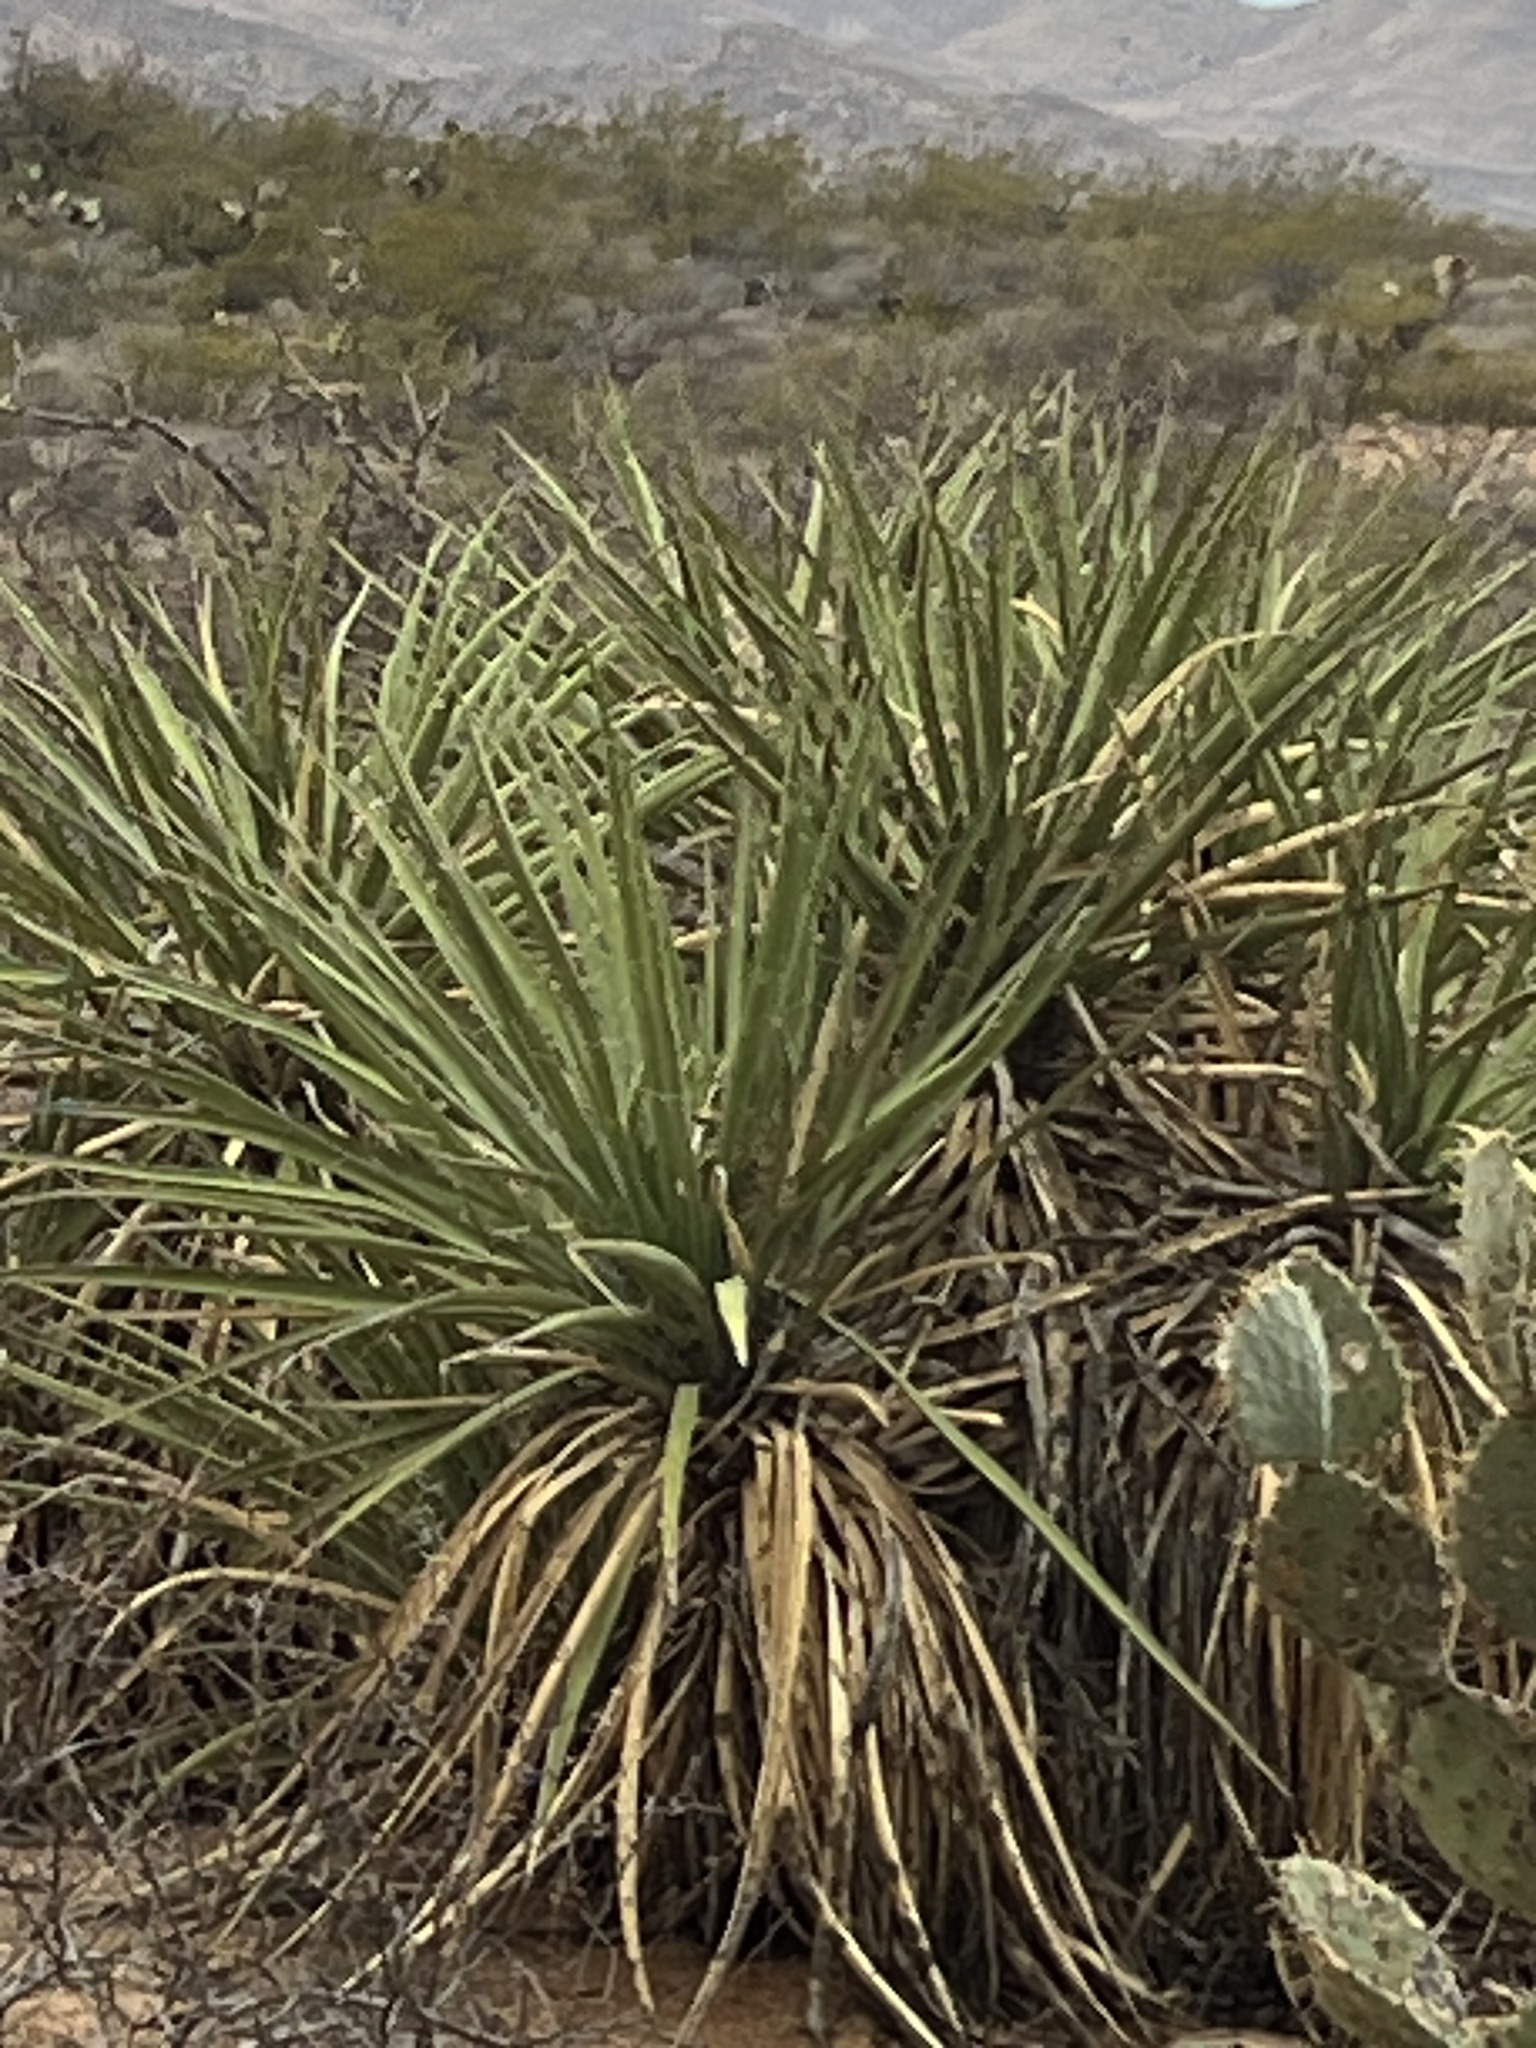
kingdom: Plantae
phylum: Tracheophyta
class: Liliopsida
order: Asparagales
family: Asparagaceae
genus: Yucca
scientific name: Yucca baccata
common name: Banana yucca
